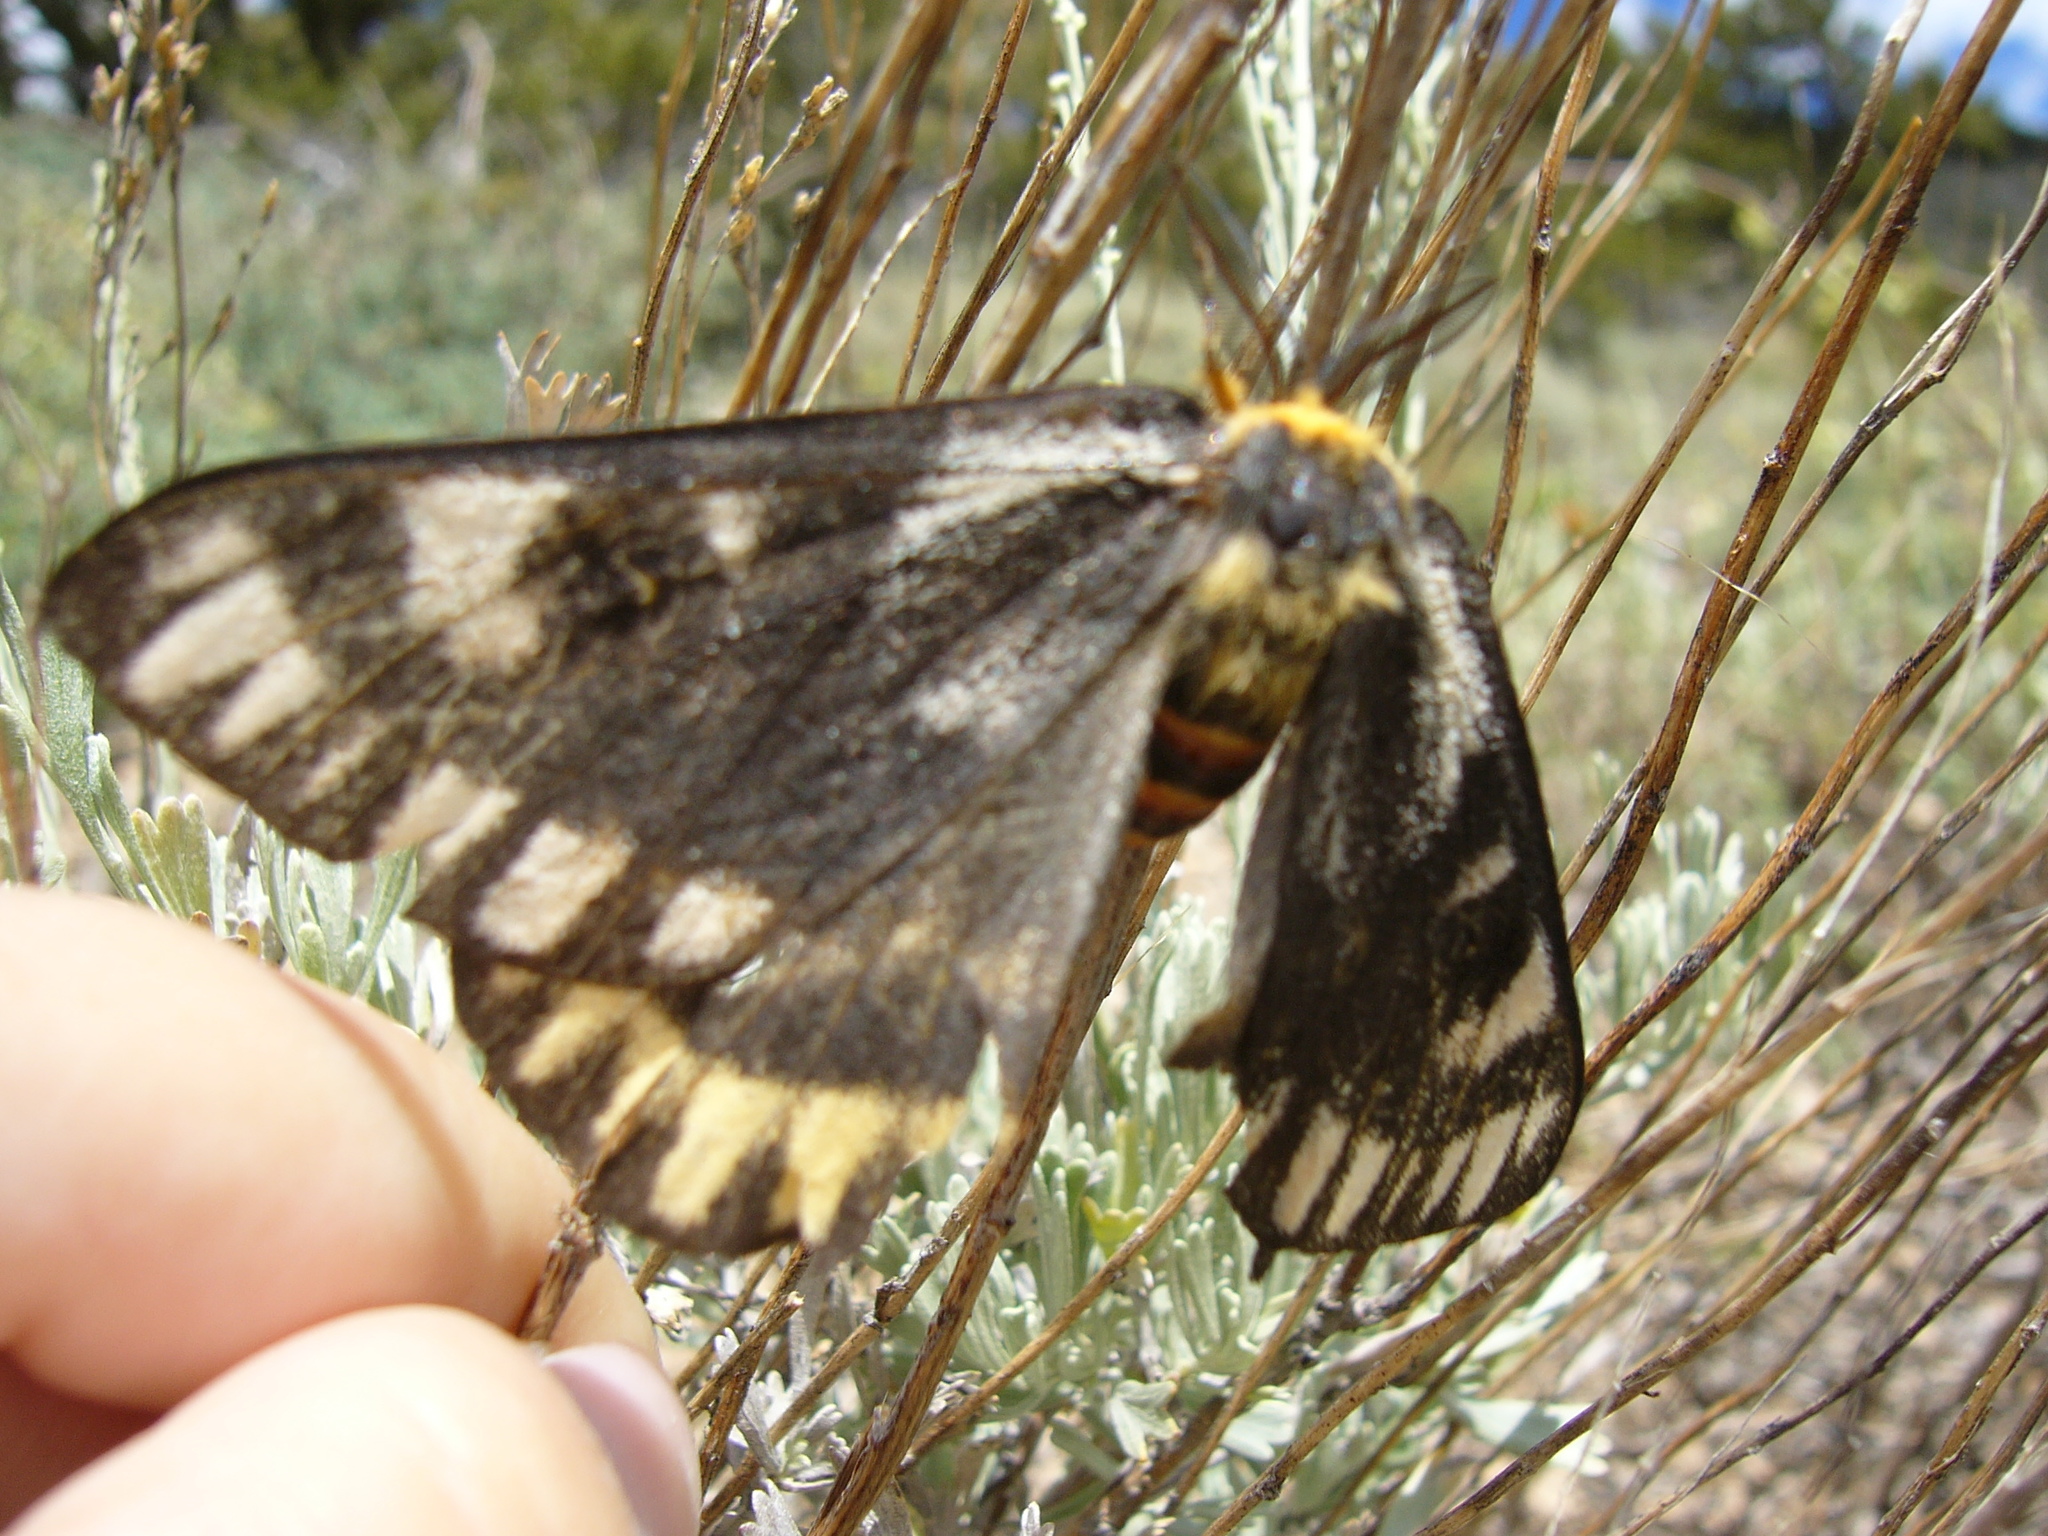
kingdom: Animalia
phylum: Arthropoda
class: Insecta
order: Lepidoptera
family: Saturniidae
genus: Hemileuca
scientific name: Hemileuca eglanterina
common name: Western sheepmoth
